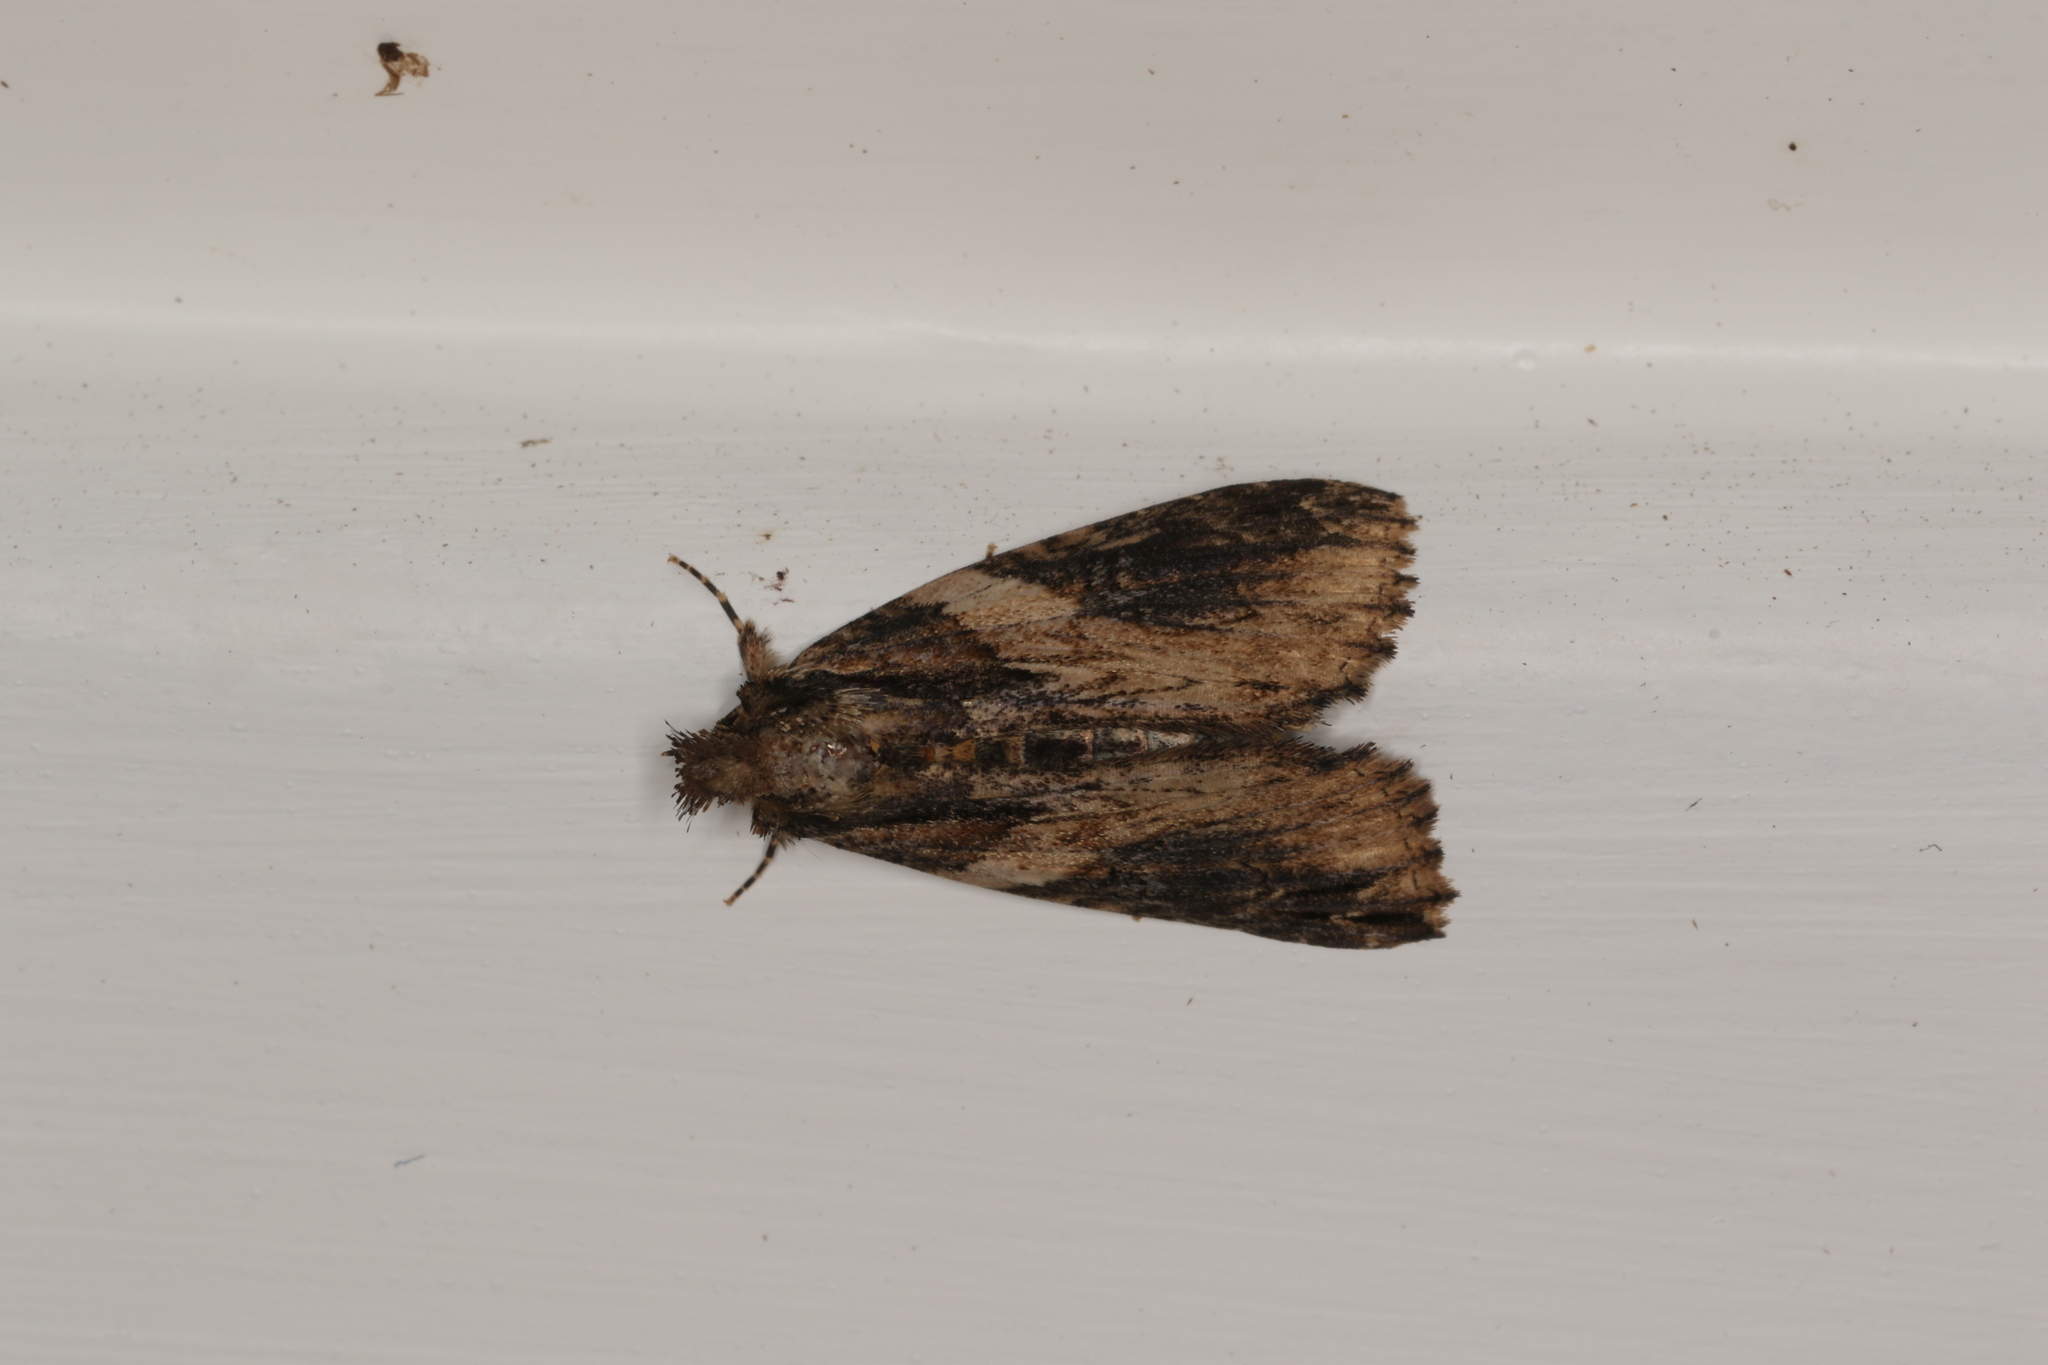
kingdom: Animalia
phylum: Arthropoda
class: Insecta
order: Lepidoptera
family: Erebidae
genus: Crioa
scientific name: Crioa hades
